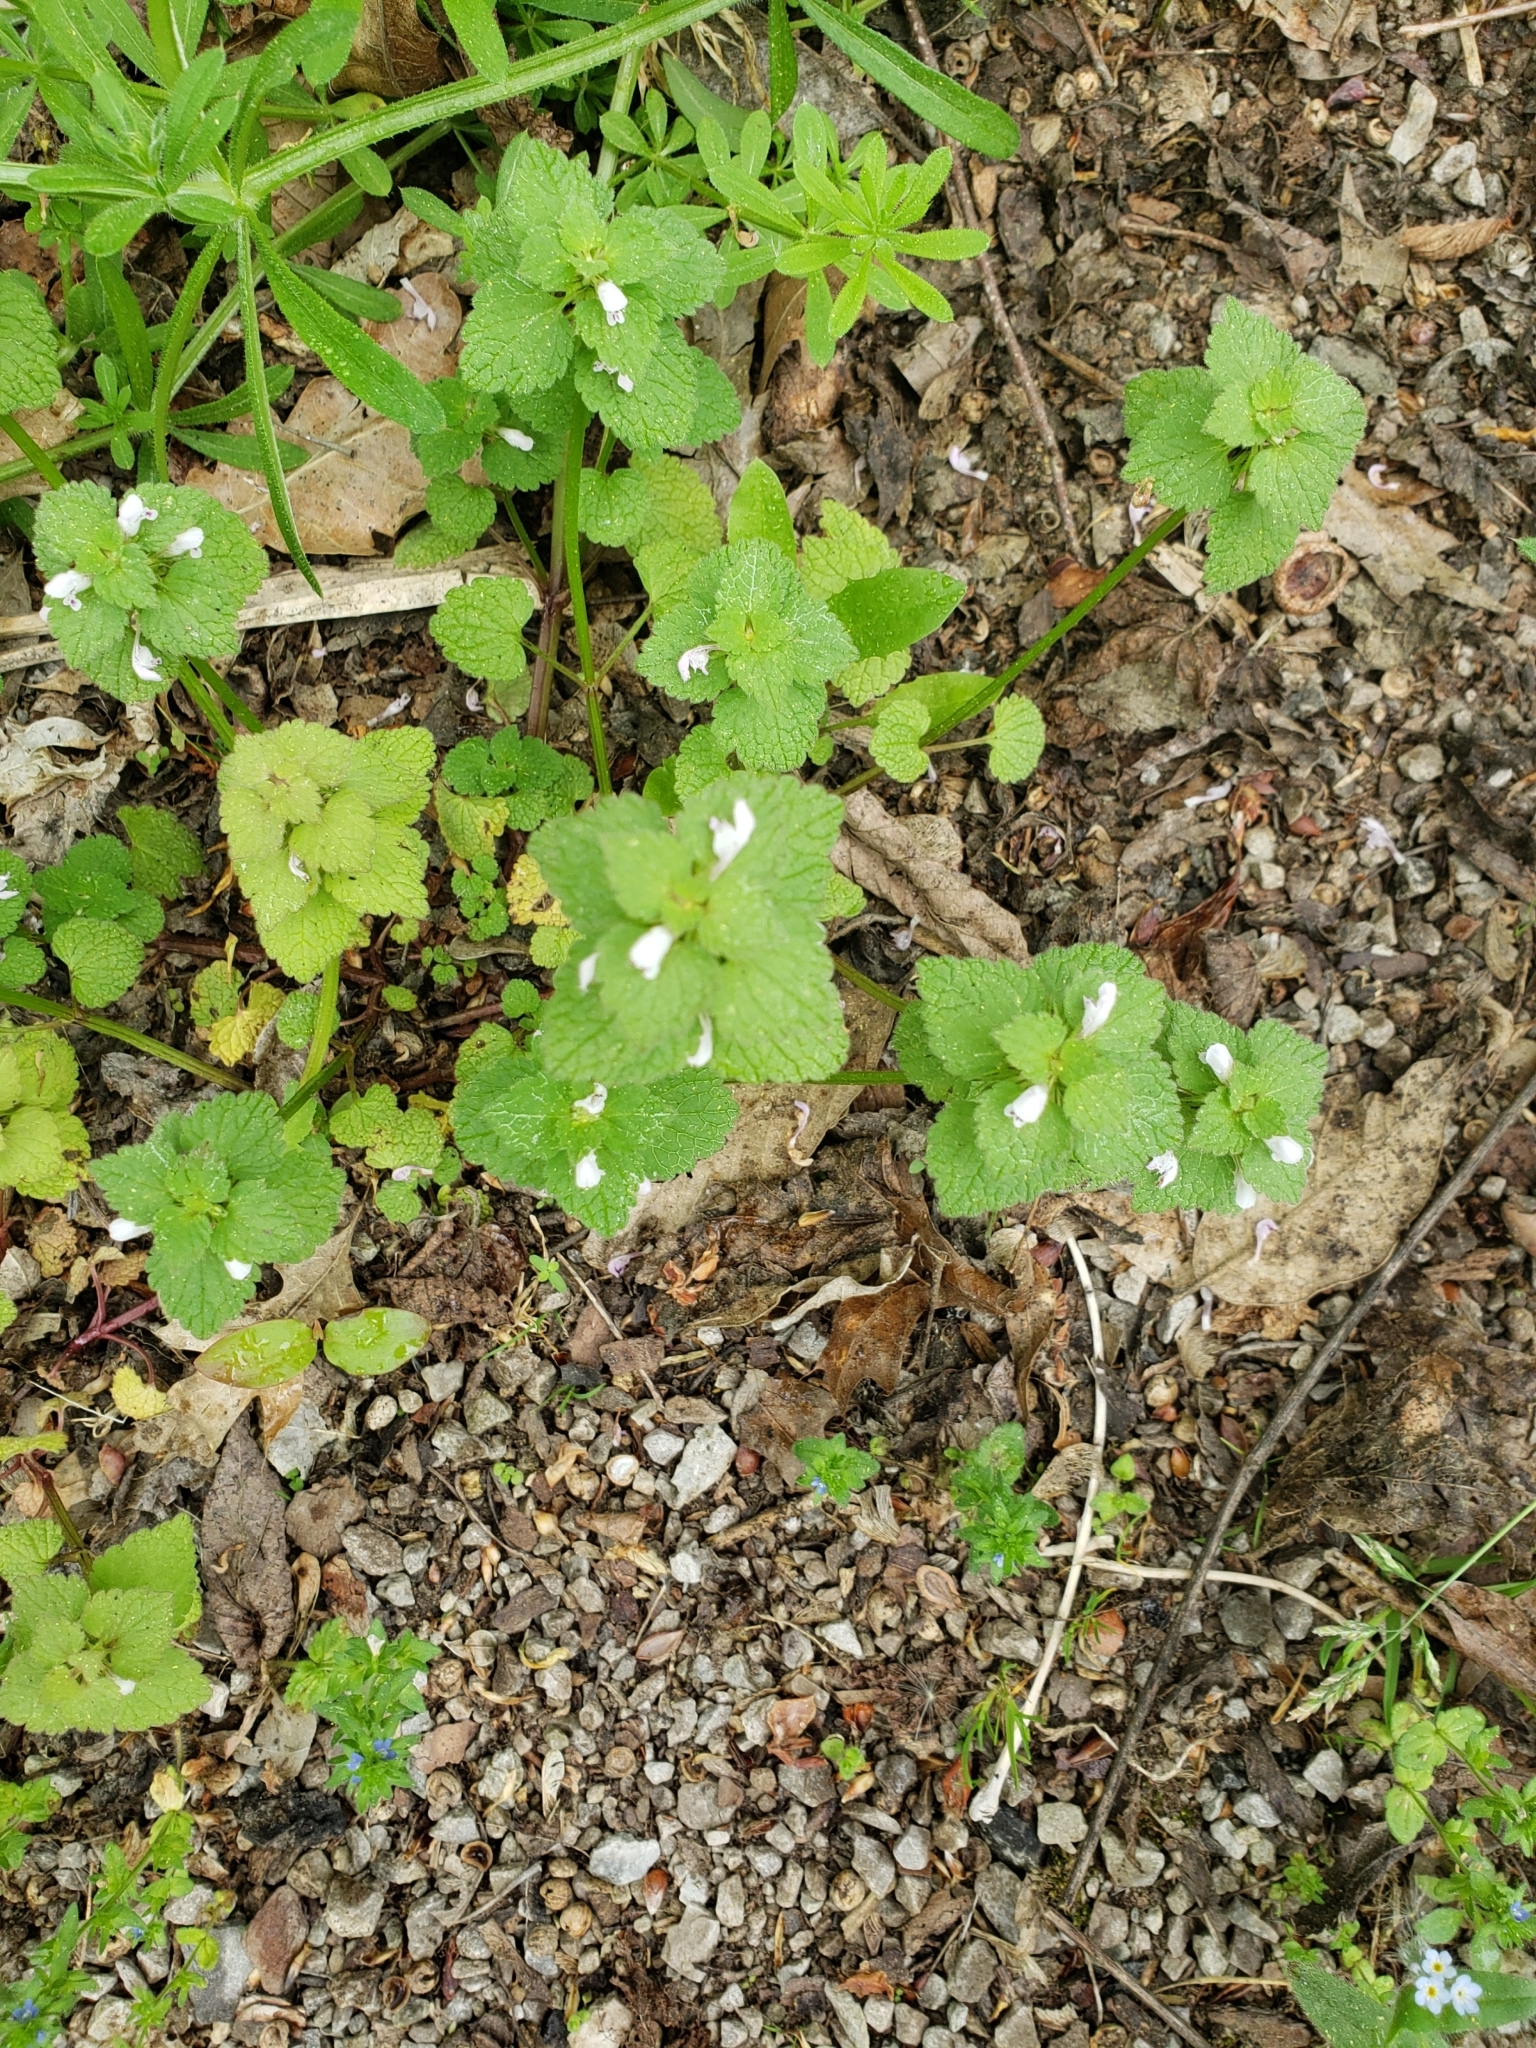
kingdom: Plantae
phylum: Tracheophyta
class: Magnoliopsida
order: Lamiales
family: Lamiaceae
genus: Lamium
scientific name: Lamium purpureum
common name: Red dead-nettle
